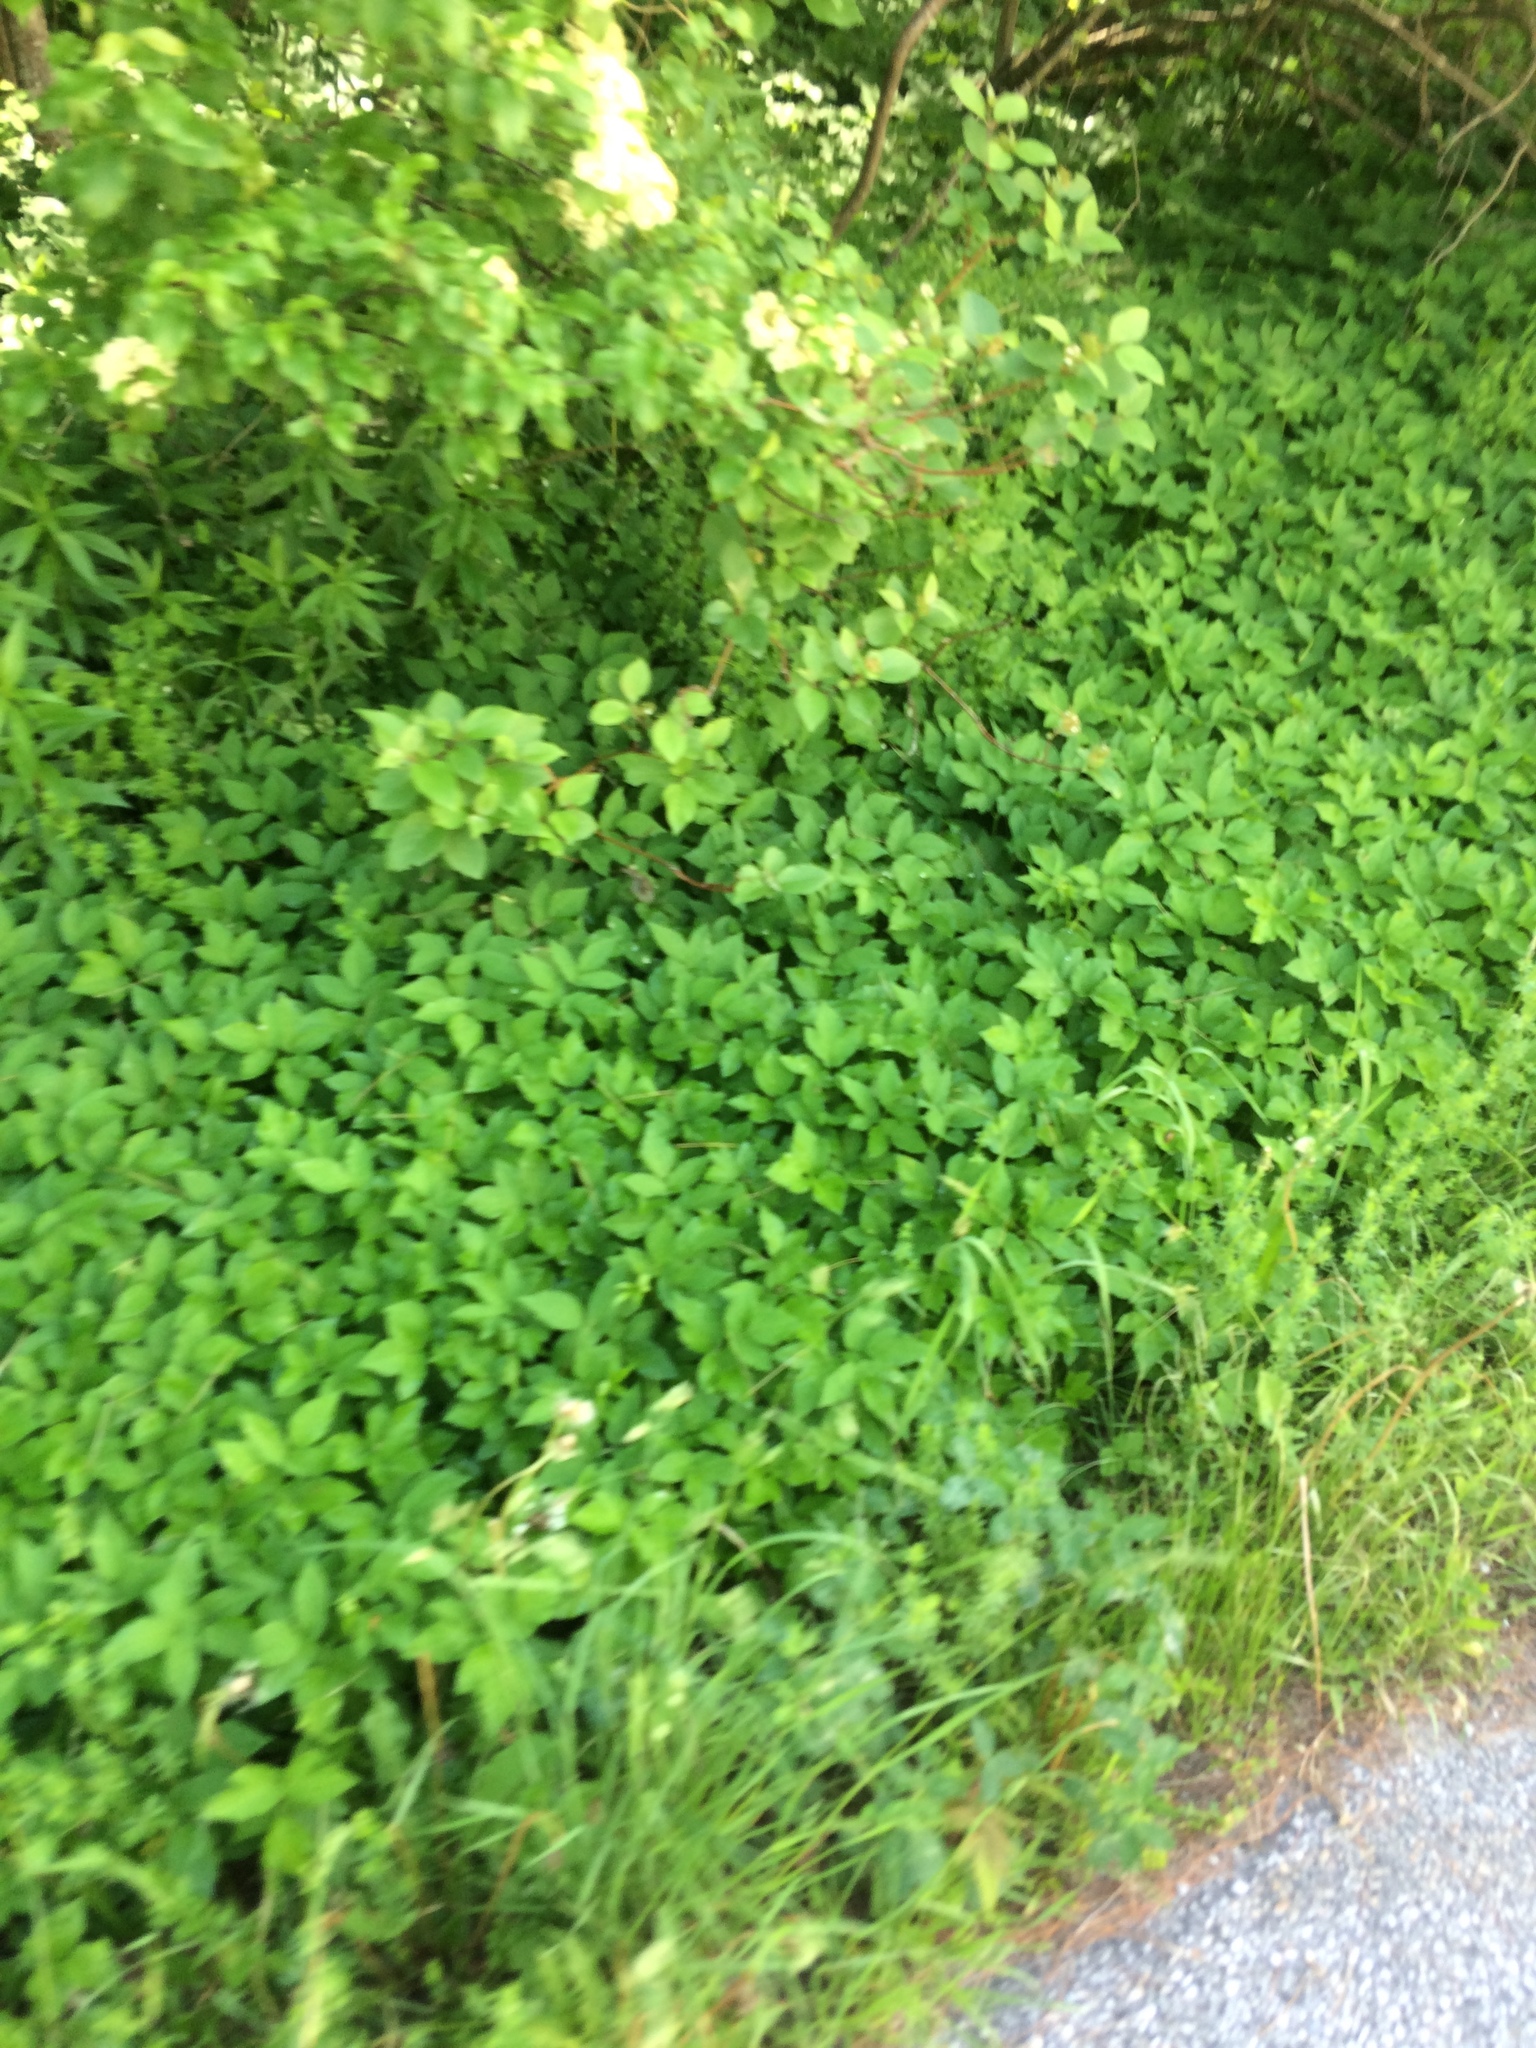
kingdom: Plantae
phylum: Tracheophyta
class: Magnoliopsida
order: Apiales
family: Apiaceae
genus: Aegopodium
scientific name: Aegopodium podagraria
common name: Ground-elder
